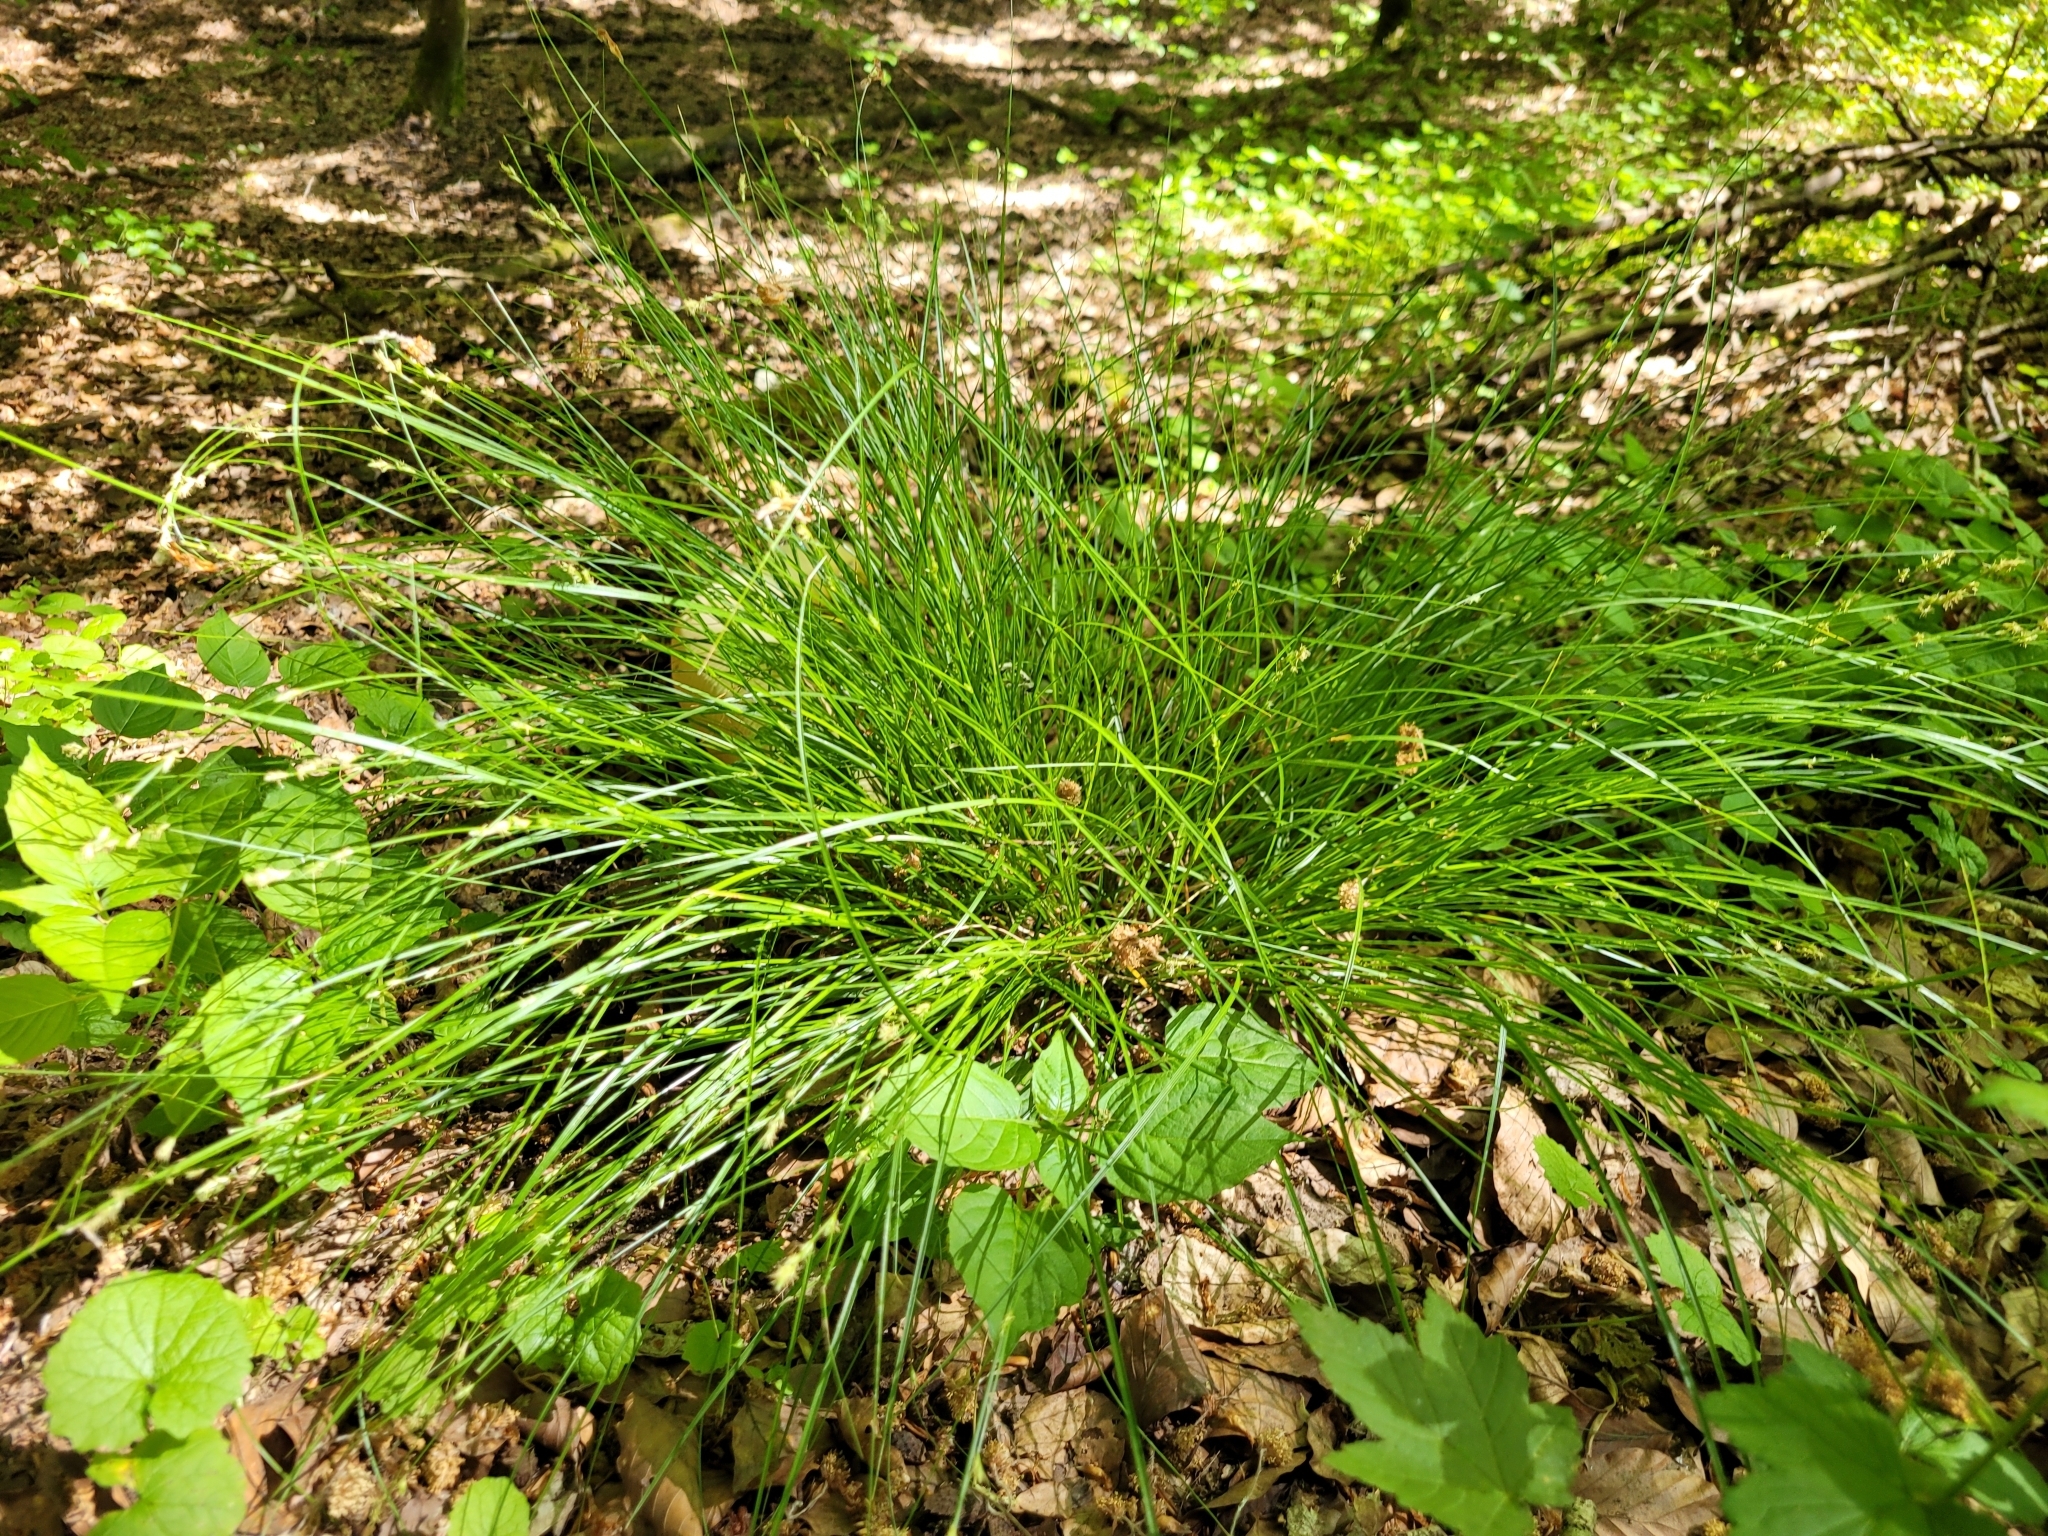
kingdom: Plantae
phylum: Tracheophyta
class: Liliopsida
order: Poales
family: Cyperaceae
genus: Carex
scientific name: Carex remota
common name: Remote sedge
